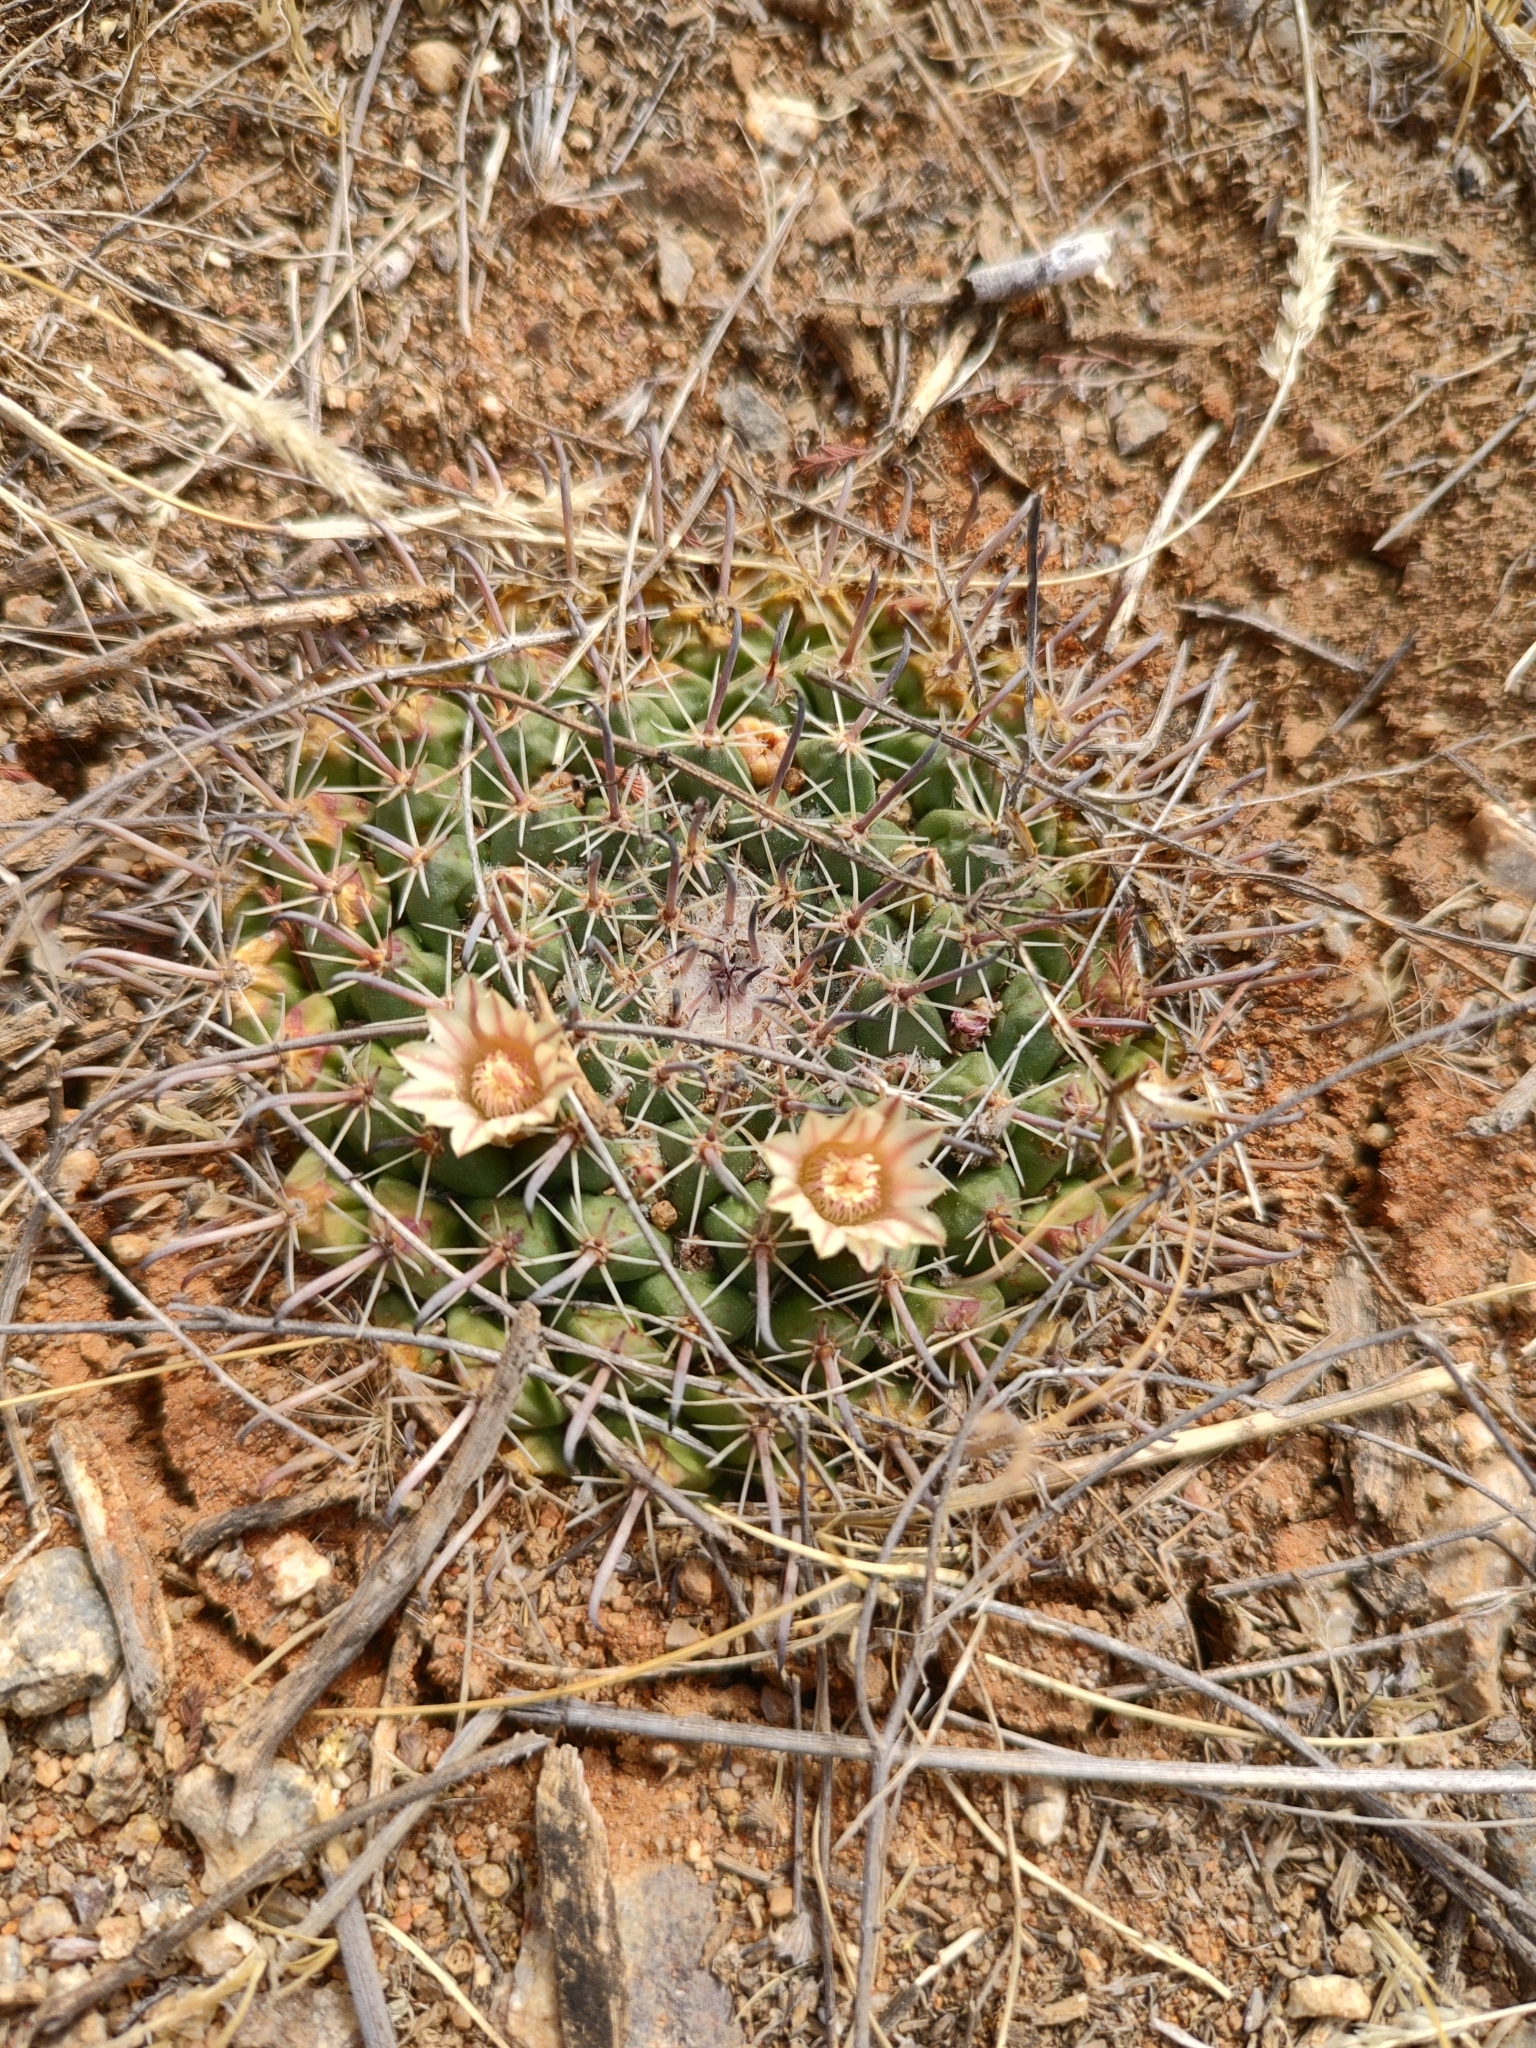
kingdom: Plantae
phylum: Tracheophyta
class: Magnoliopsida
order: Caryophyllales
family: Cactaceae
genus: Mammillaria
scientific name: Mammillaria uncinata
